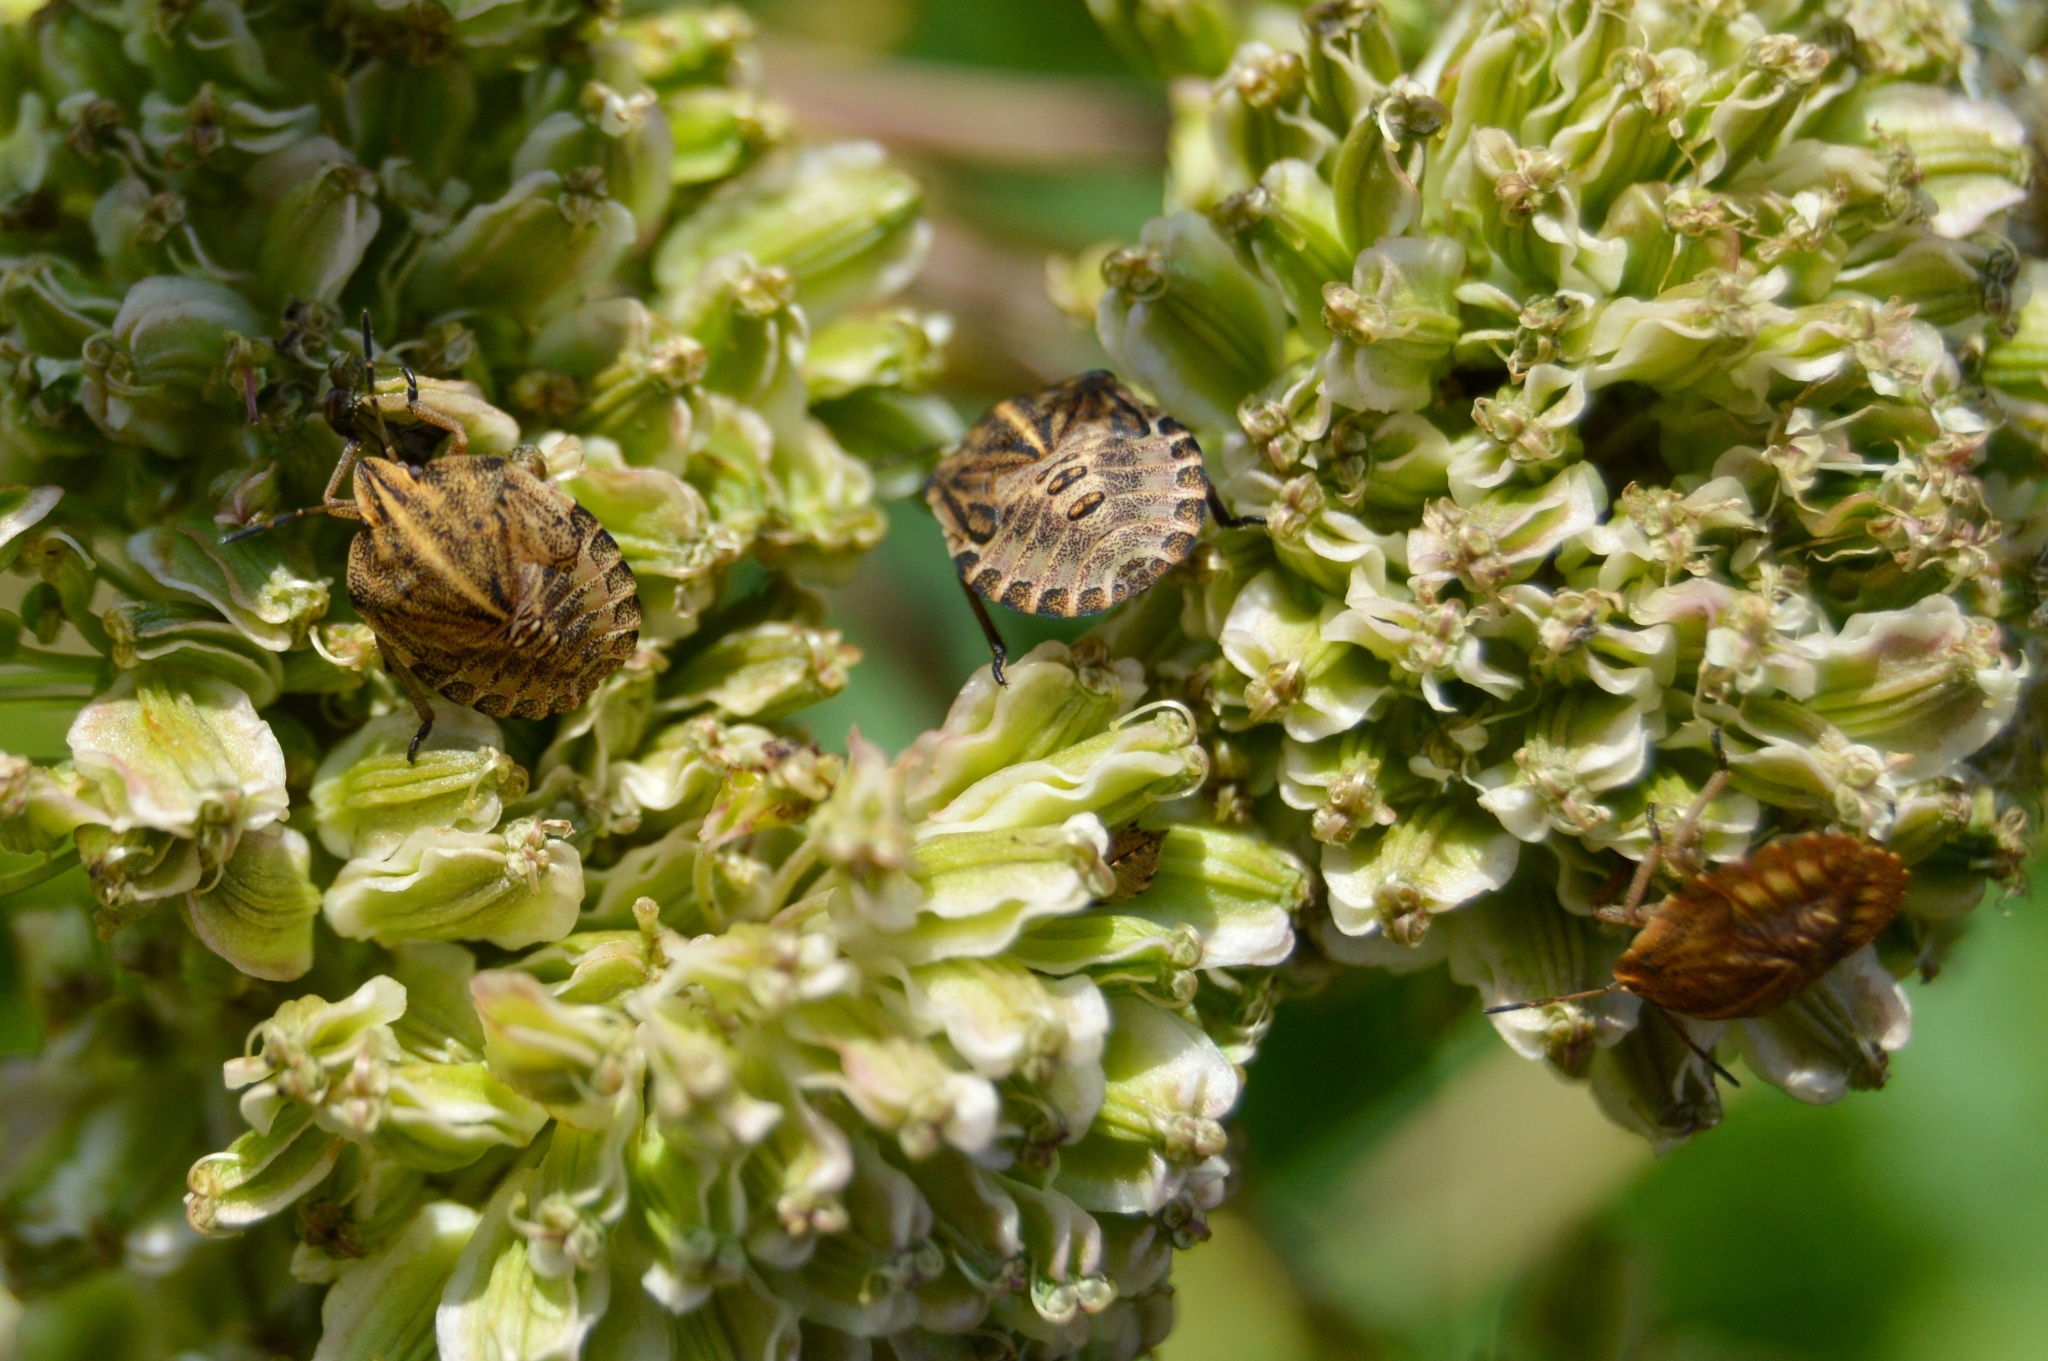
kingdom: Animalia
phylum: Arthropoda
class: Insecta
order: Hemiptera
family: Pentatomidae
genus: Graphosoma
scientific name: Graphosoma italicum
